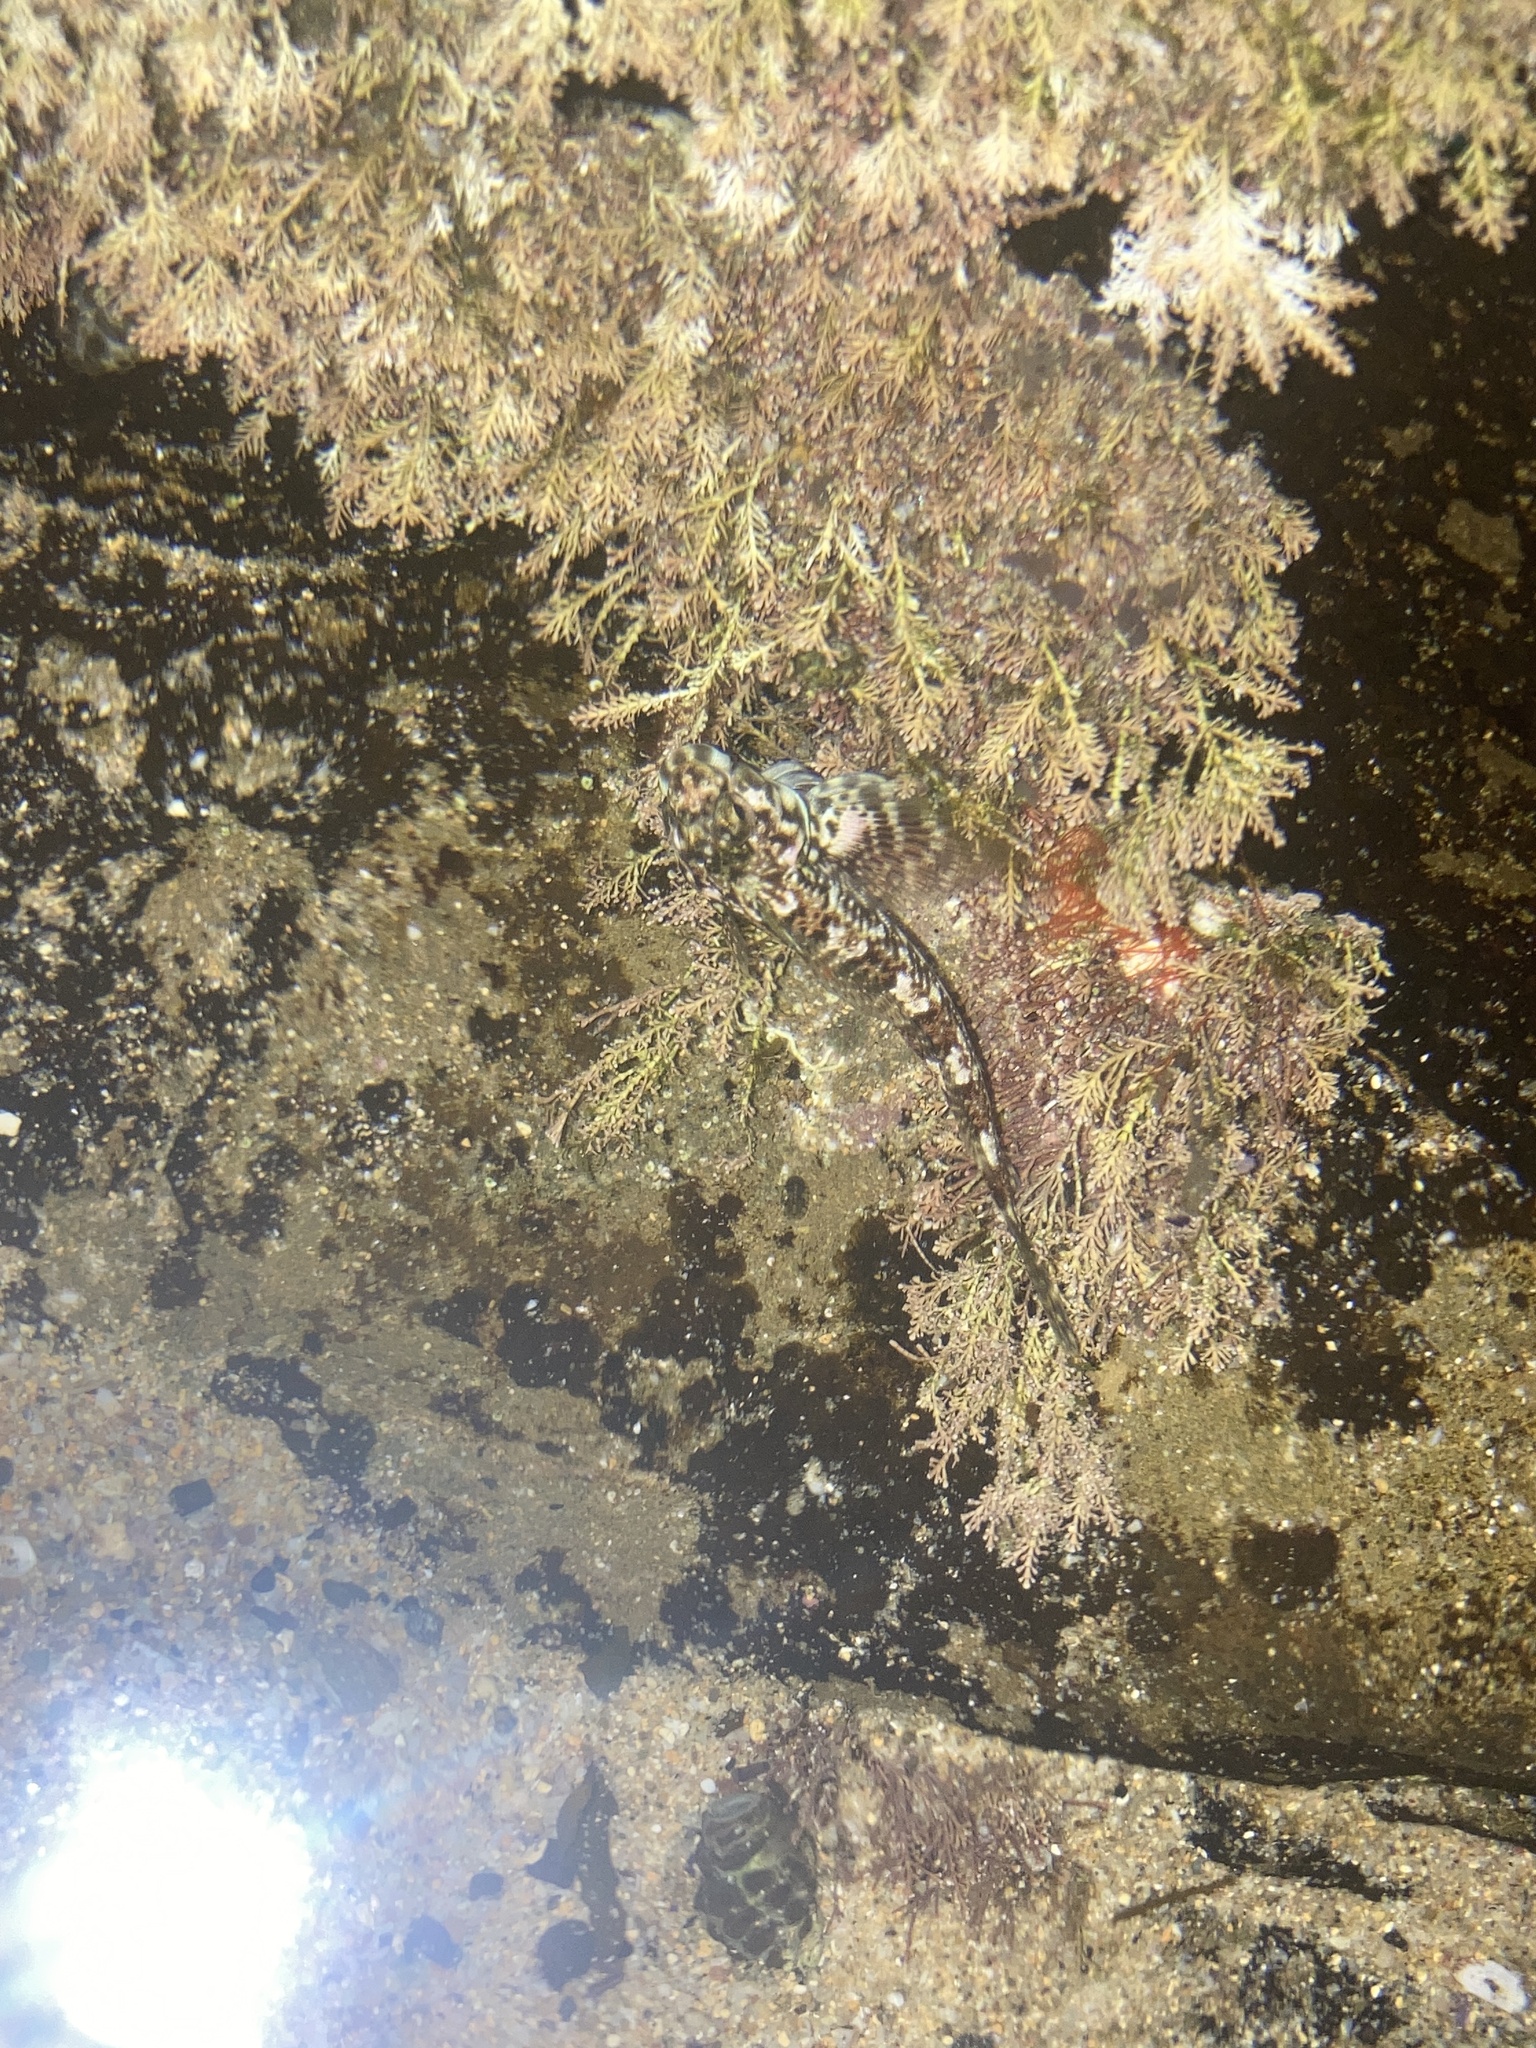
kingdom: Animalia
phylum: Chordata
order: Perciformes
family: Tripterygiidae
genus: Lepidoblennius
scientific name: Lepidoblennius haplodactylus
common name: Eastern jumping blenny
